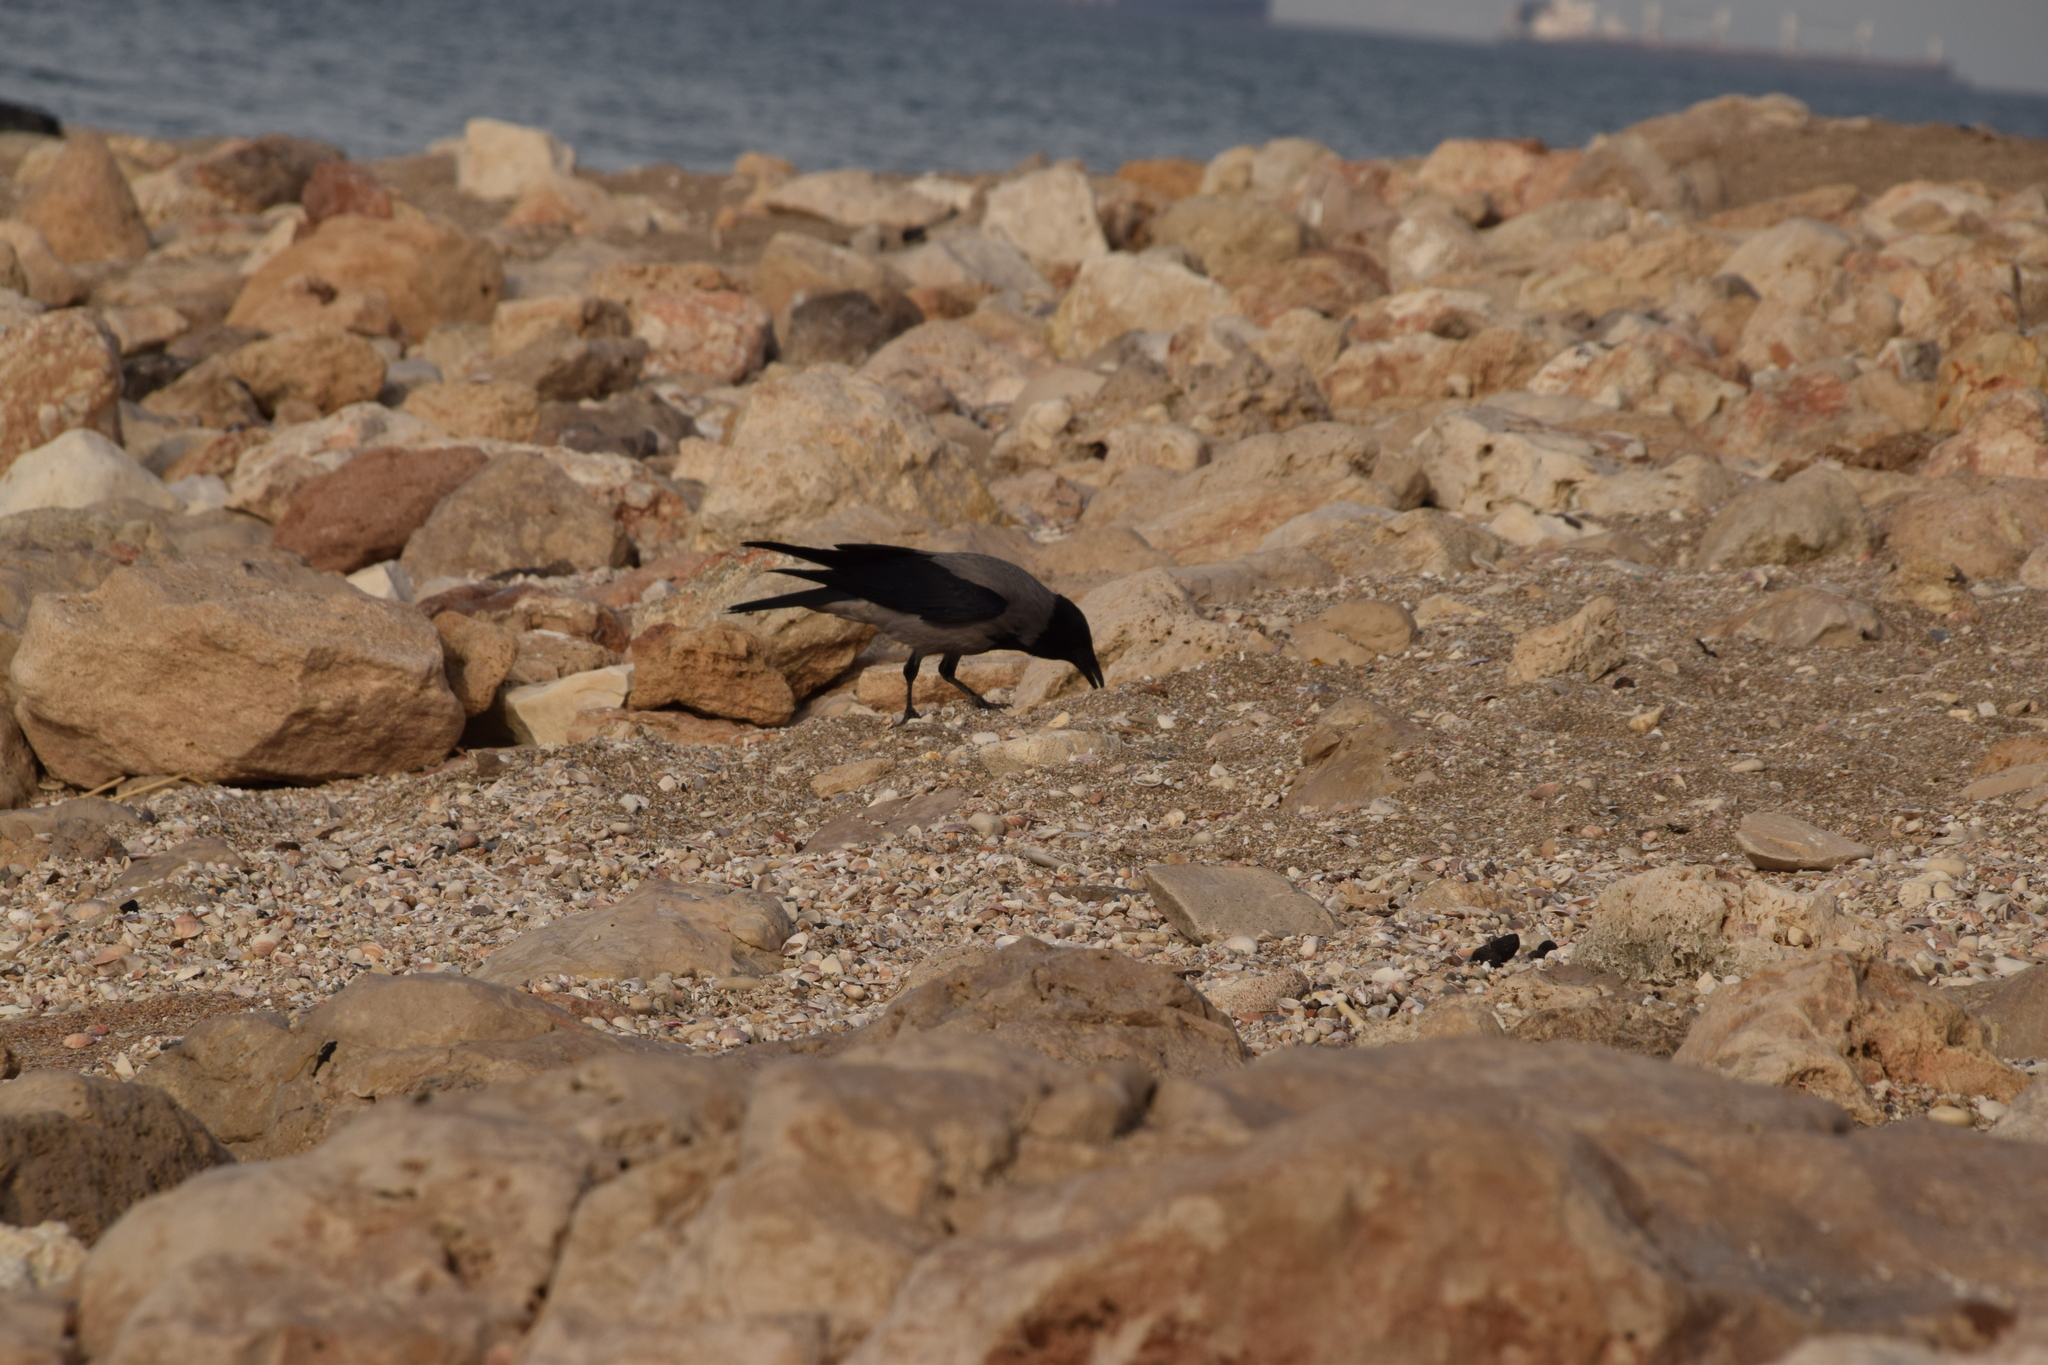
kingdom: Animalia
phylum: Chordata
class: Aves
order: Passeriformes
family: Corvidae
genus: Corvus
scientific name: Corvus cornix
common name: Hooded crow
